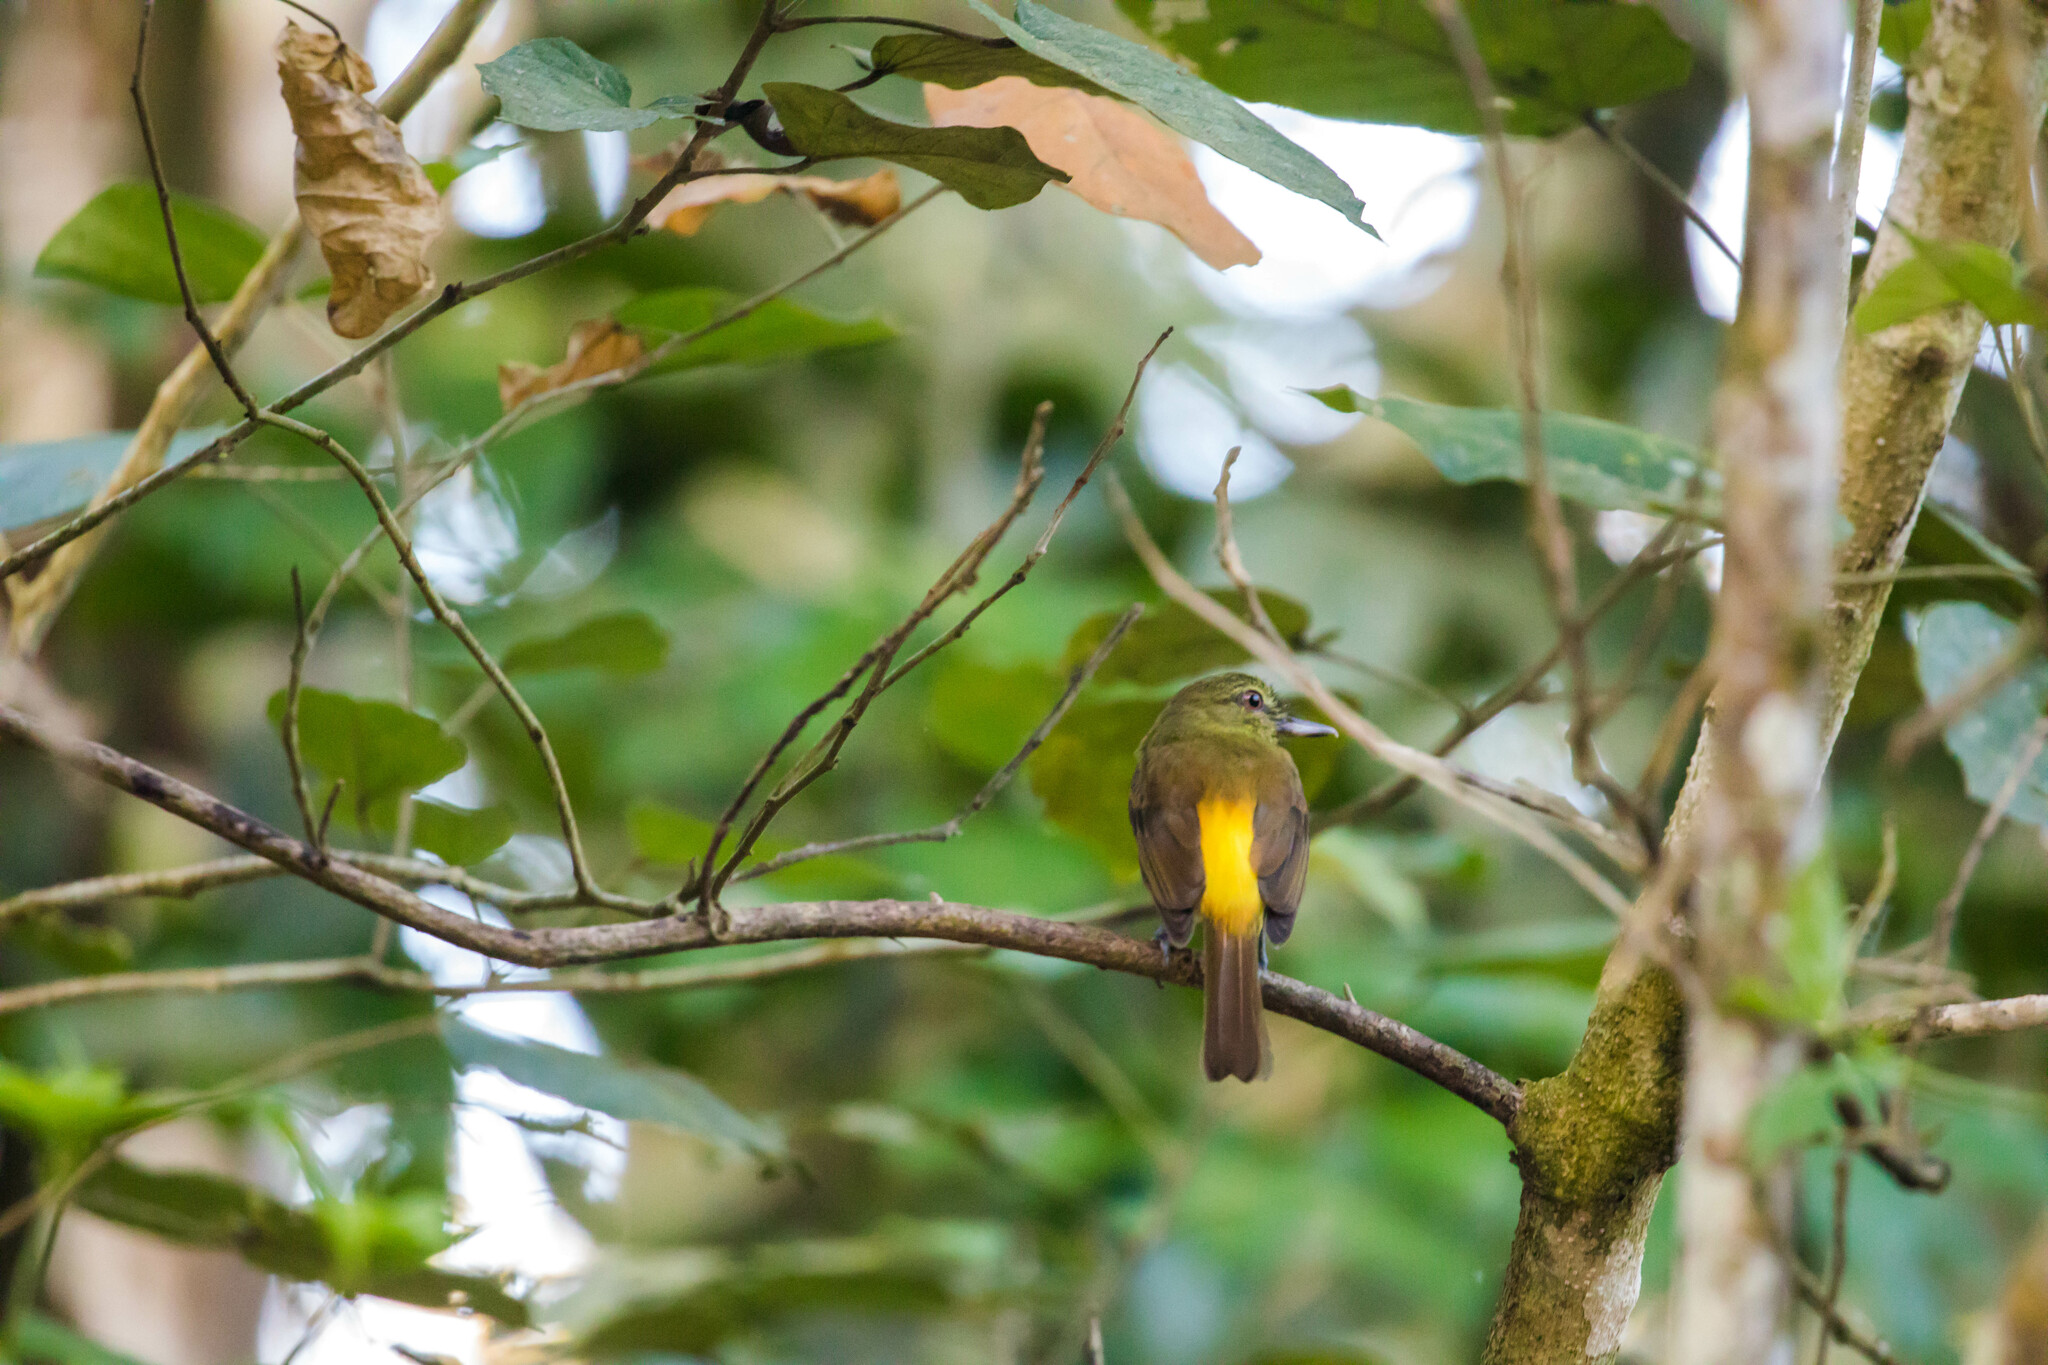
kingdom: Animalia
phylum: Chordata
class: Aves
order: Passeriformes
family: Tyrannidae
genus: Attila
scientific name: Attila spadiceus
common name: Bright-rumped attila
